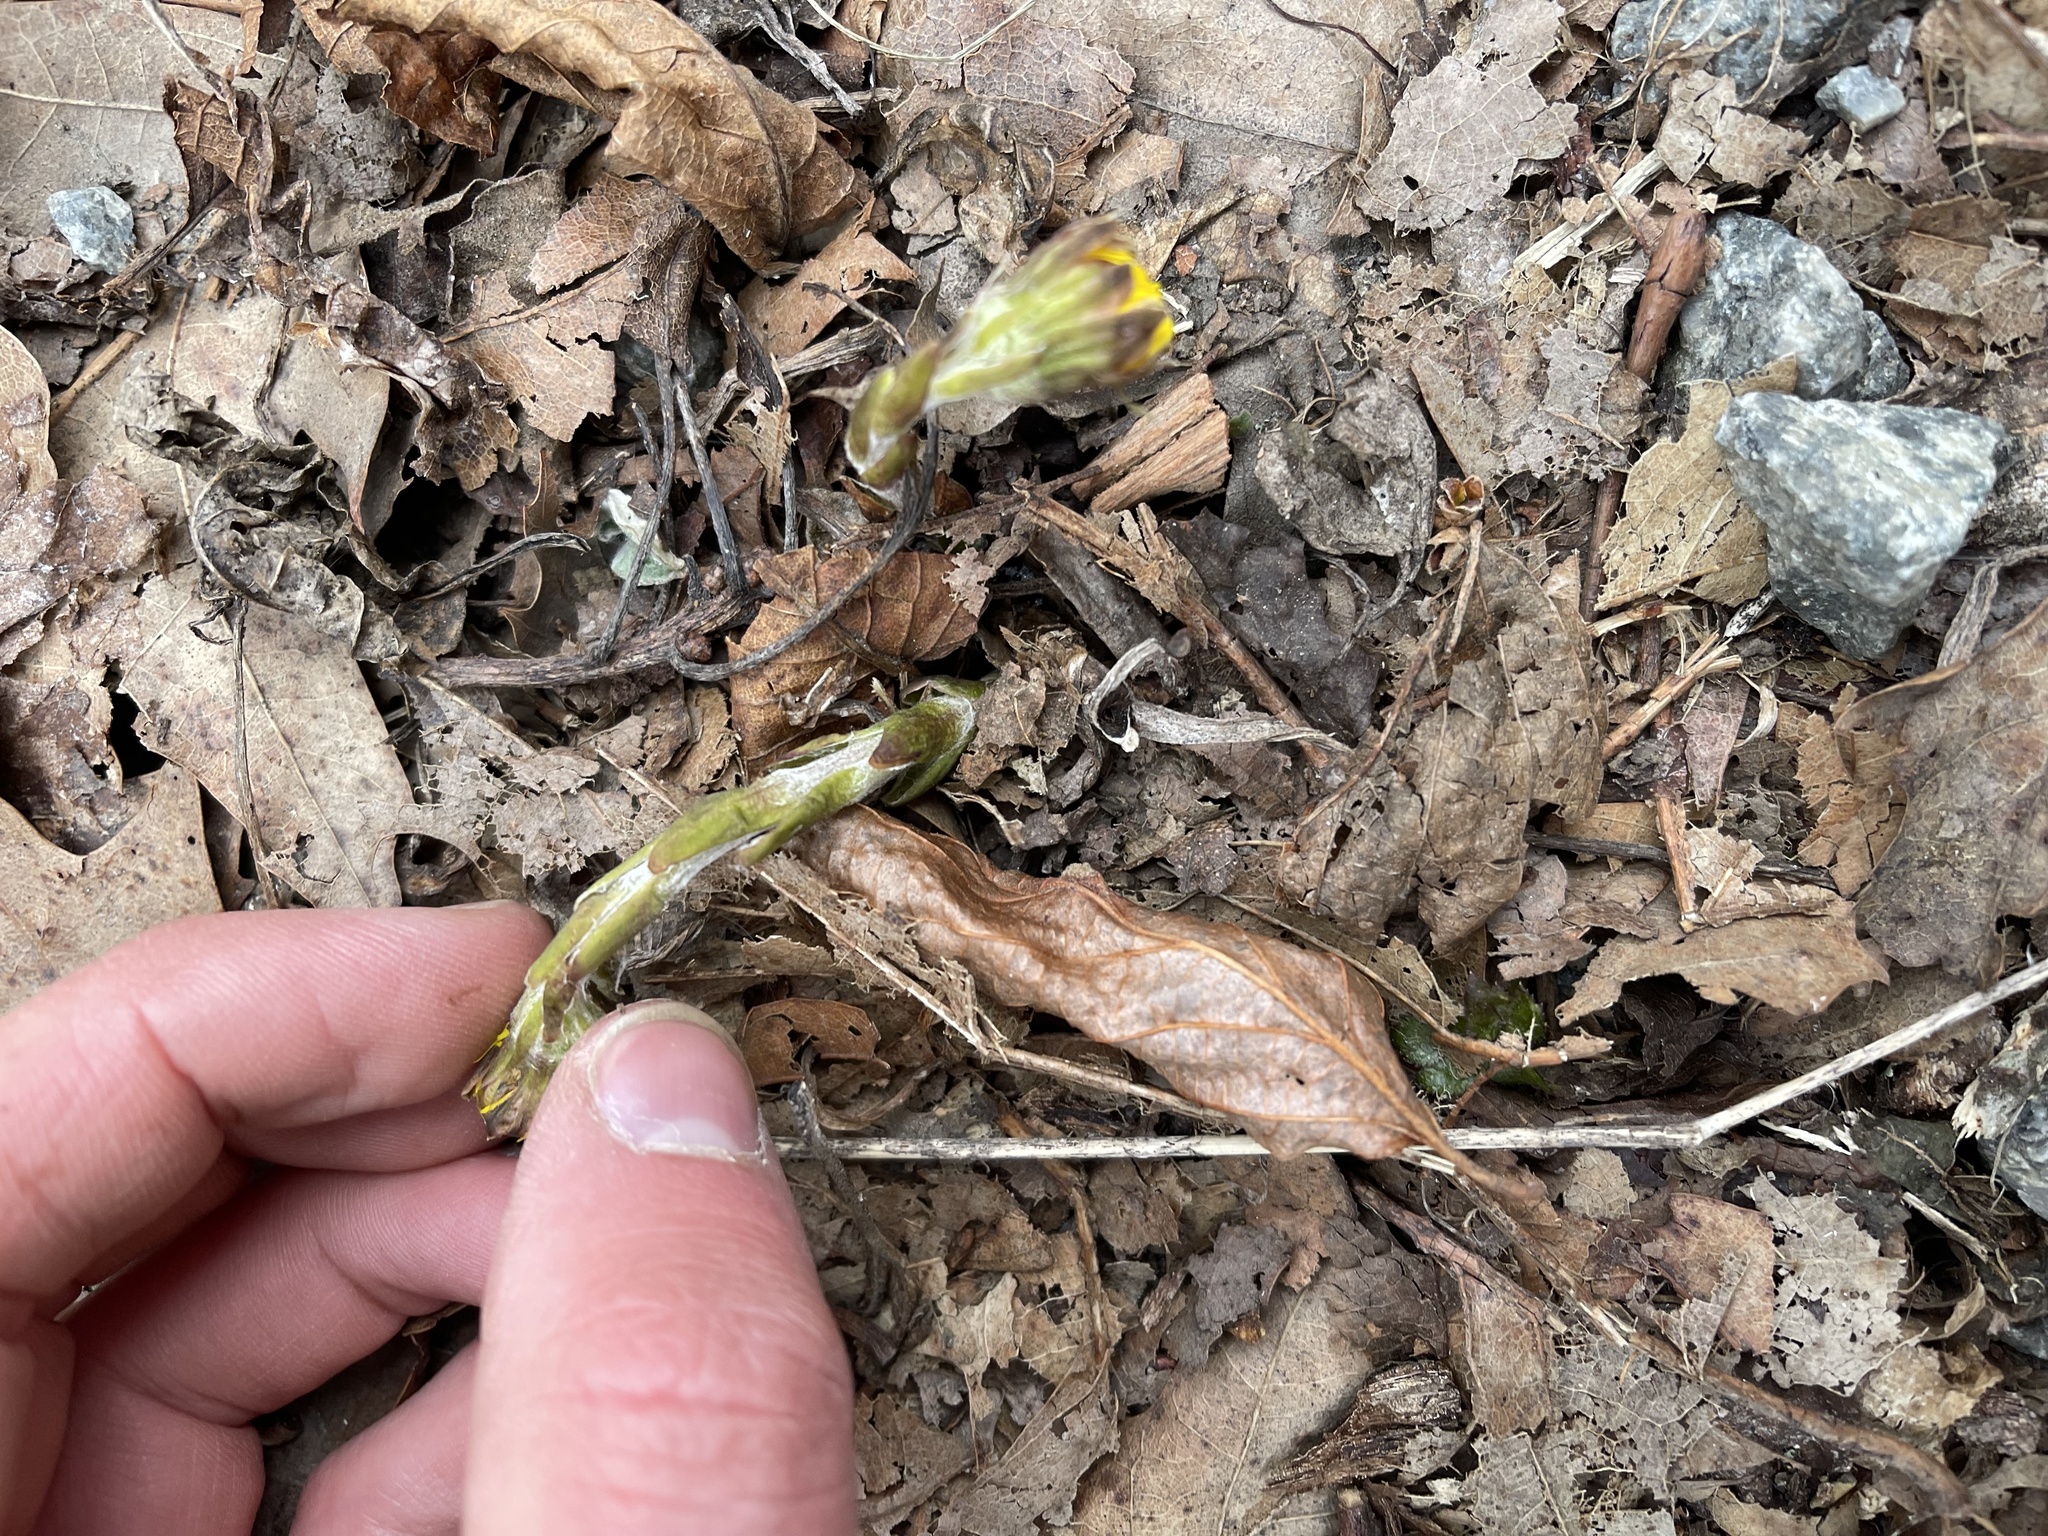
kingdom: Plantae
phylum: Tracheophyta
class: Magnoliopsida
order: Asterales
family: Asteraceae
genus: Tussilago
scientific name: Tussilago farfara
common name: Coltsfoot
